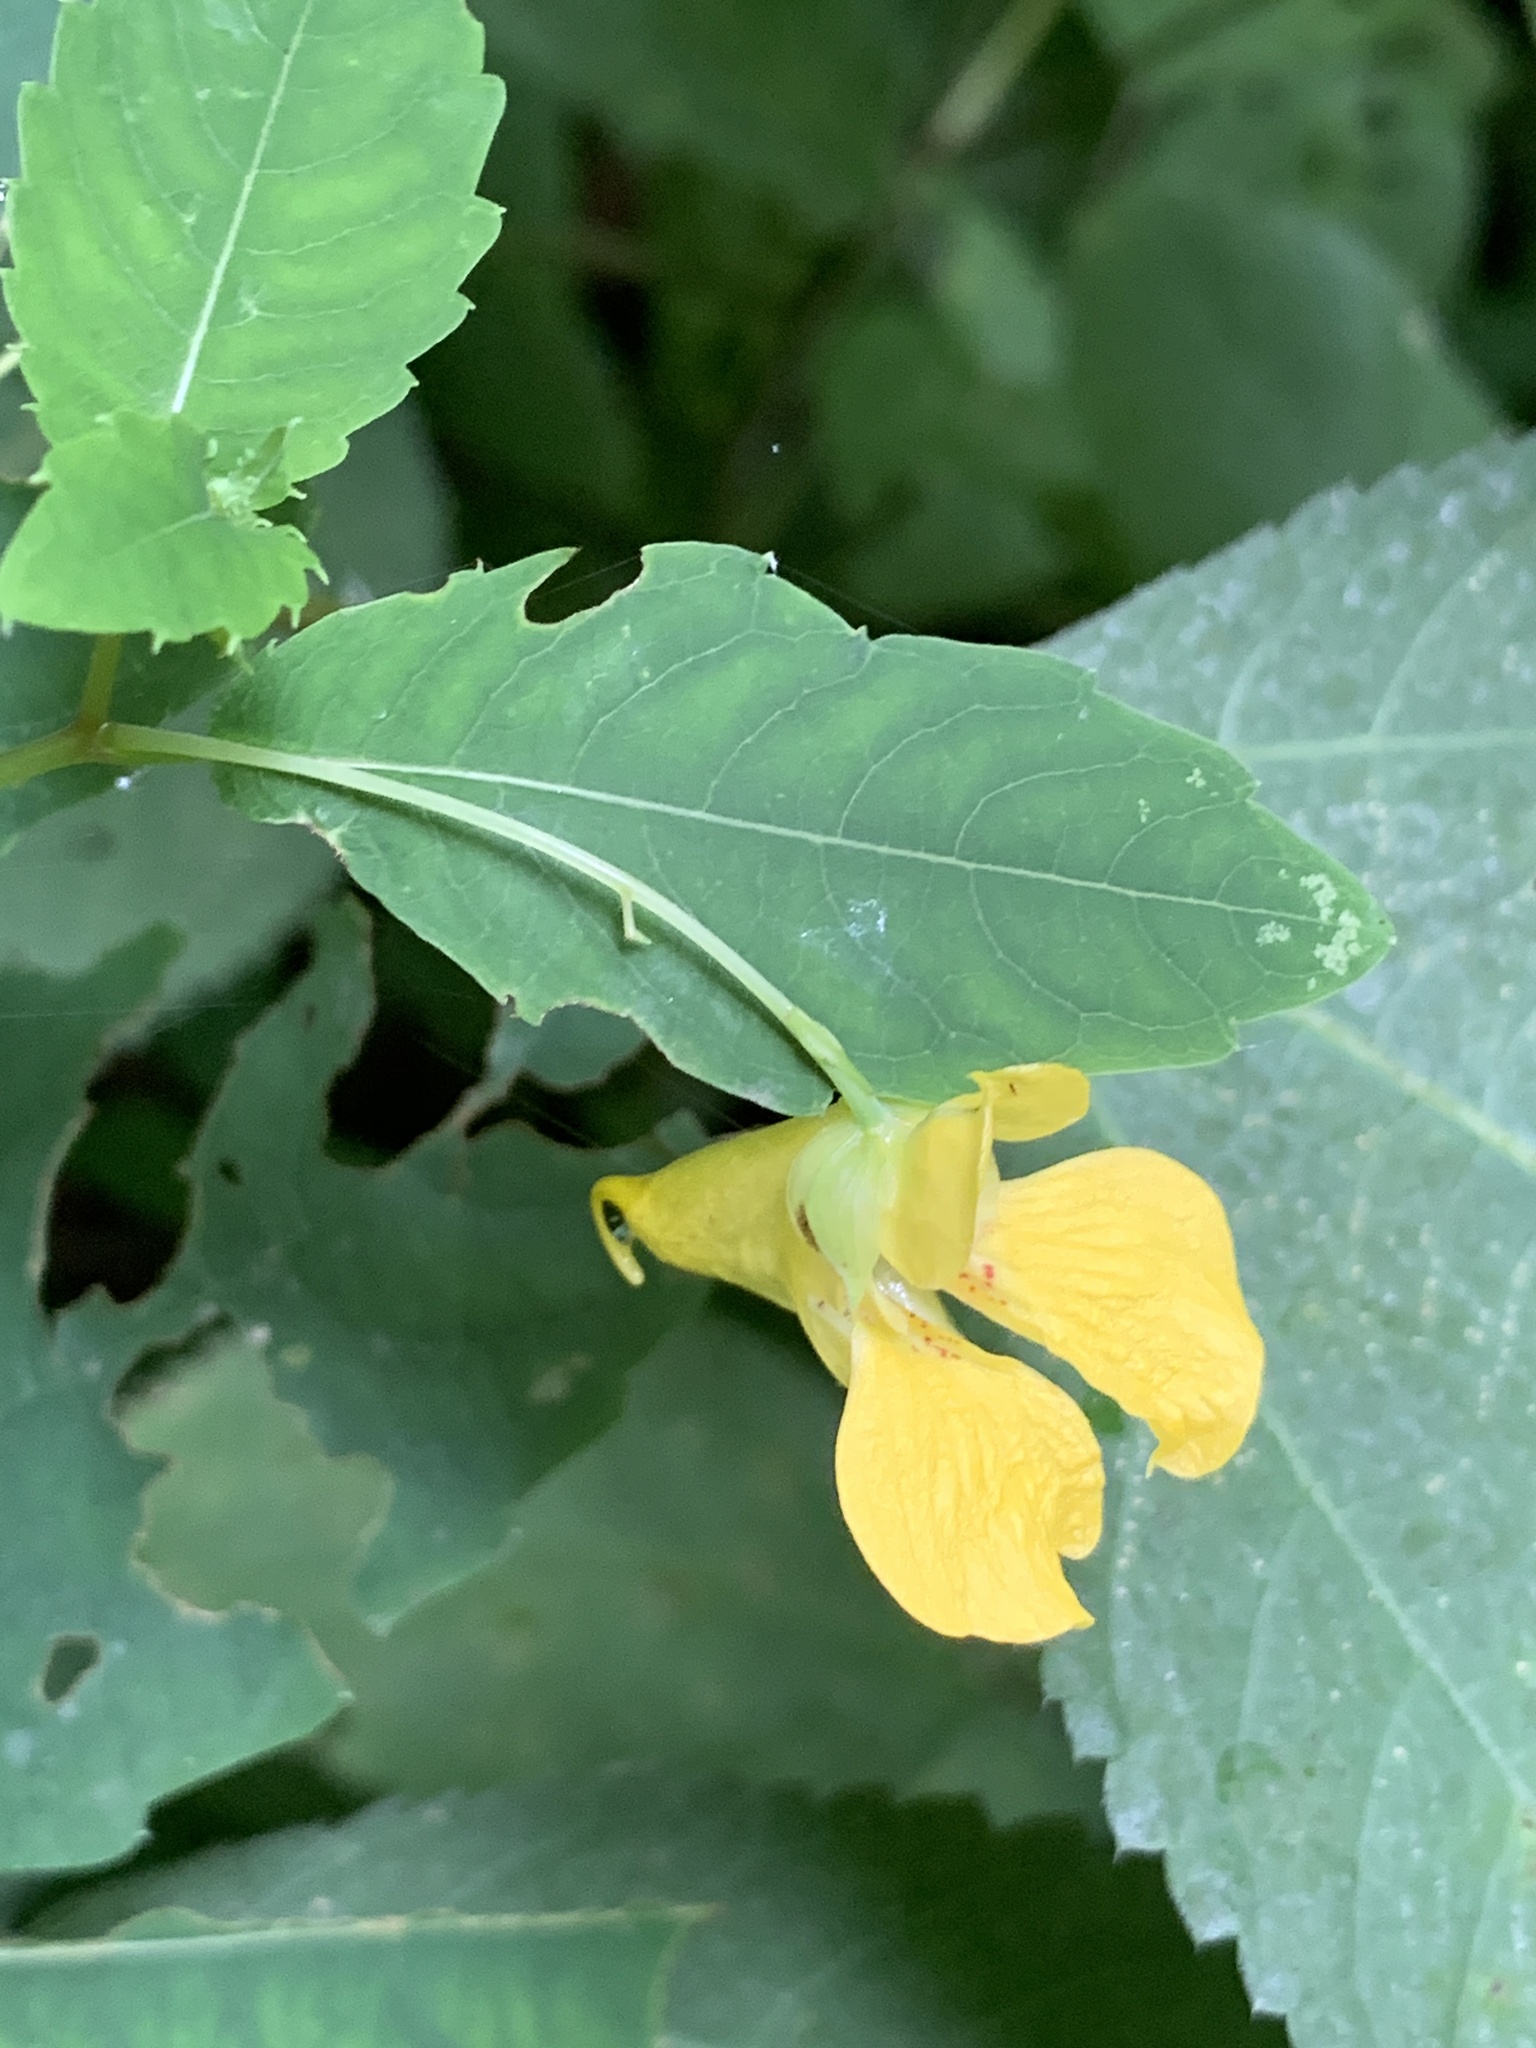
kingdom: Plantae
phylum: Tracheophyta
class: Magnoliopsida
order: Ericales
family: Balsaminaceae
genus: Impatiens
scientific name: Impatiens pallida
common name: Pale snapweed
